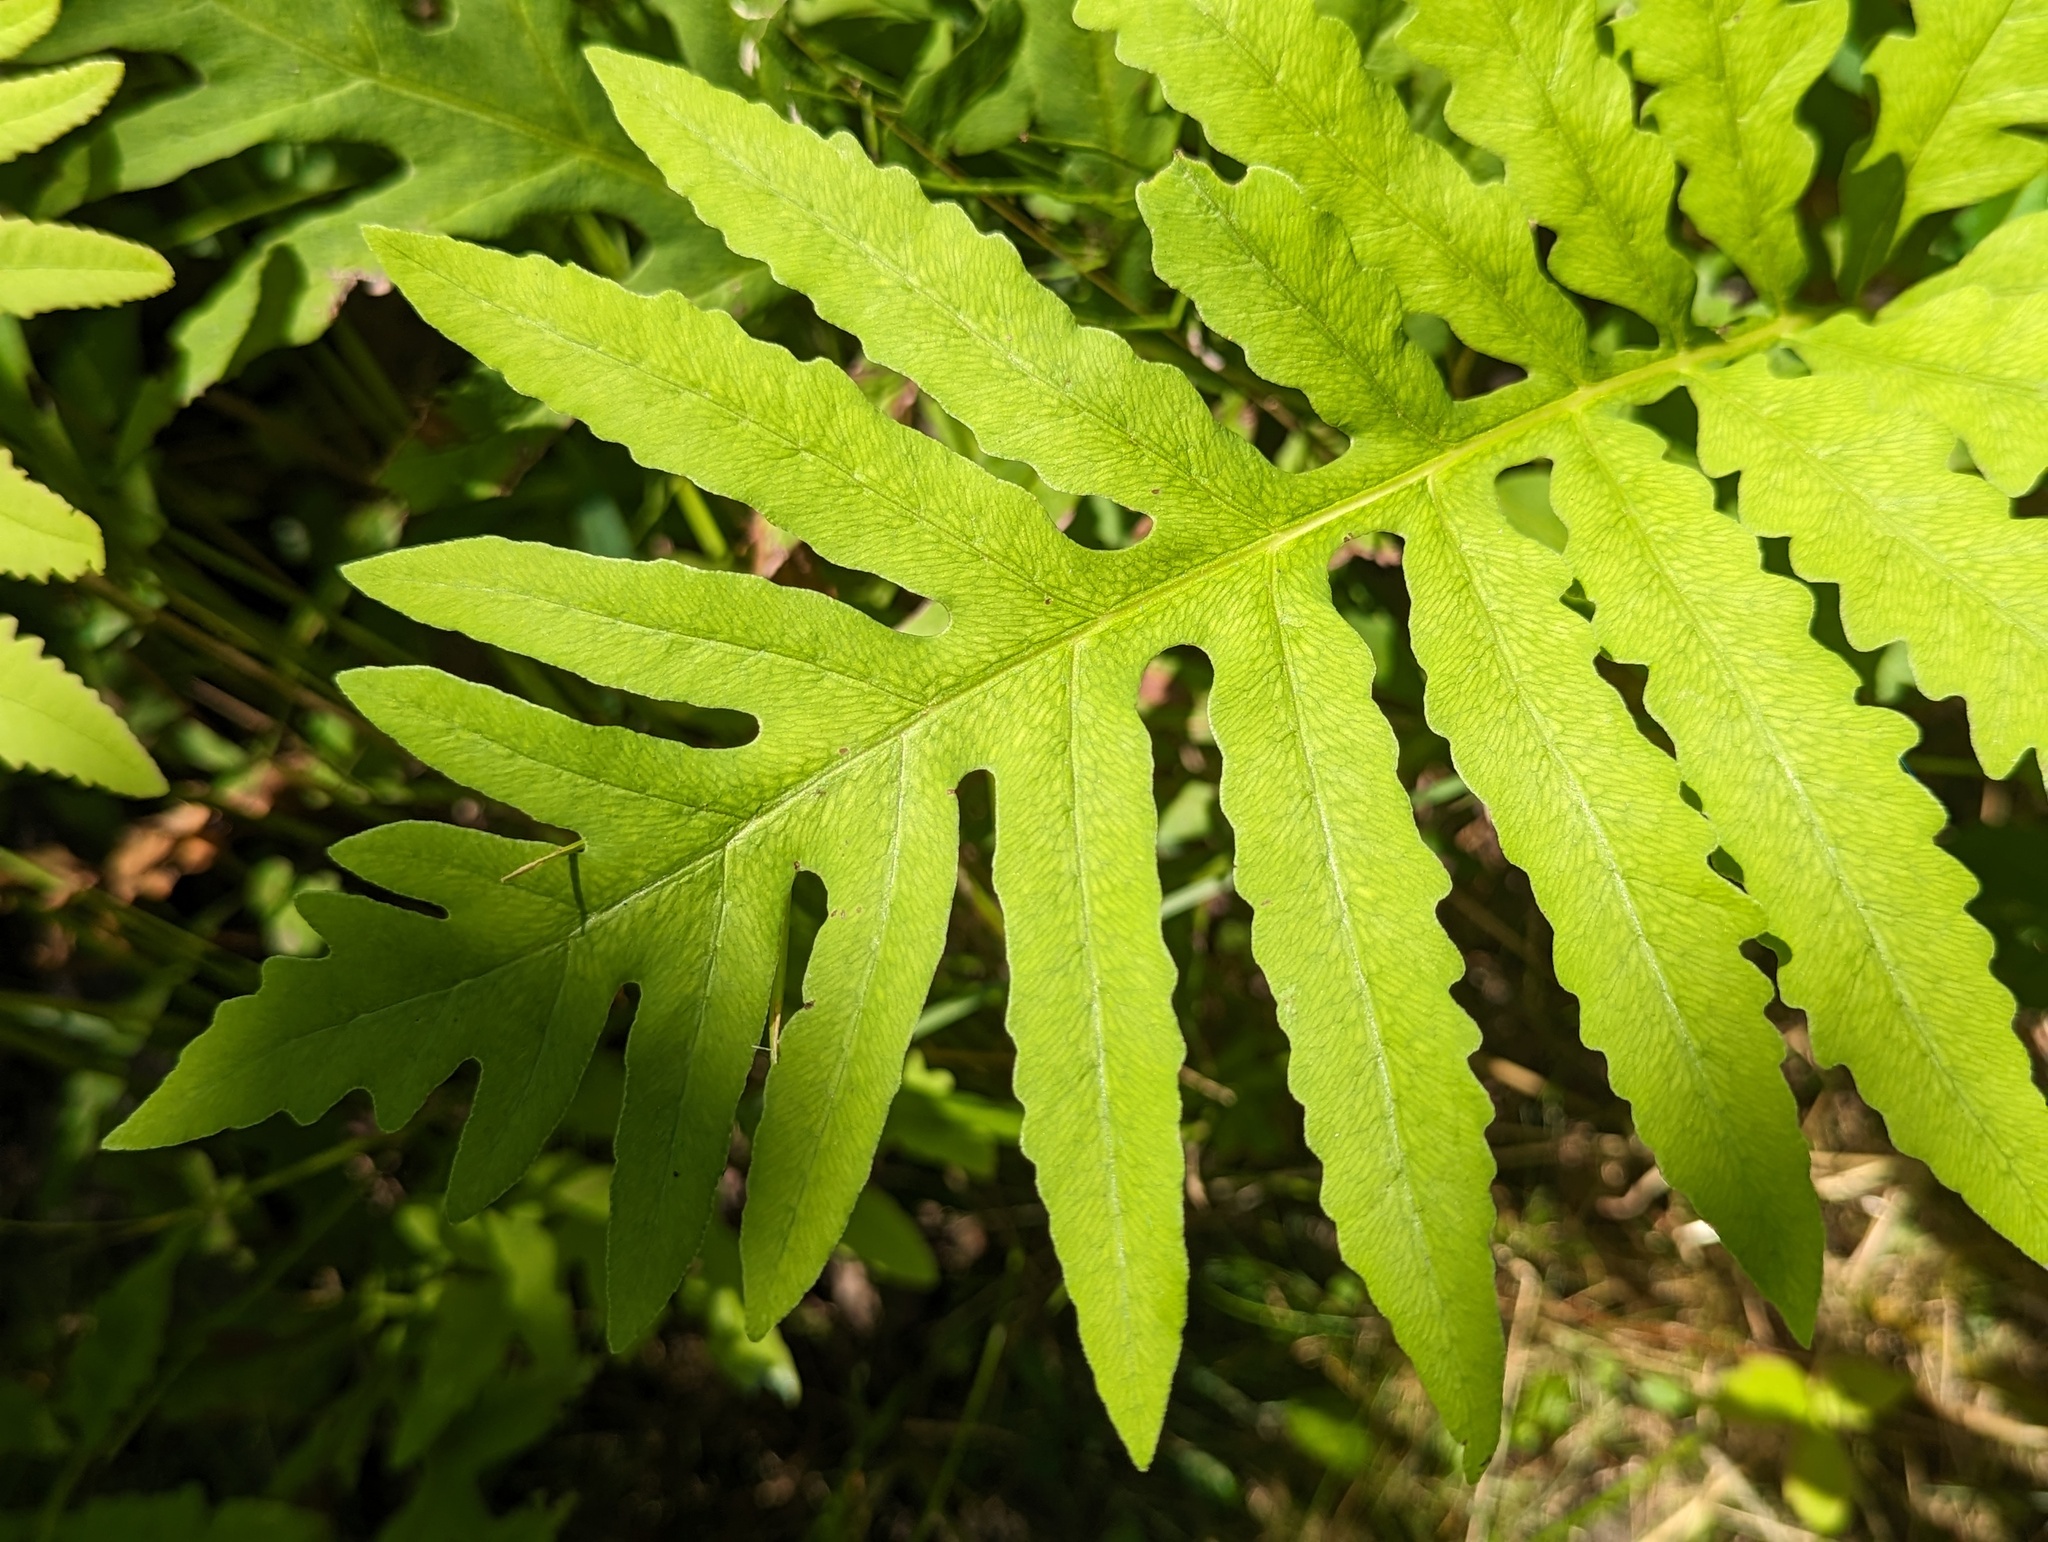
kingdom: Plantae
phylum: Tracheophyta
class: Polypodiopsida
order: Polypodiales
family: Onocleaceae
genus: Onoclea
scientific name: Onoclea sensibilis
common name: Sensitive fern
